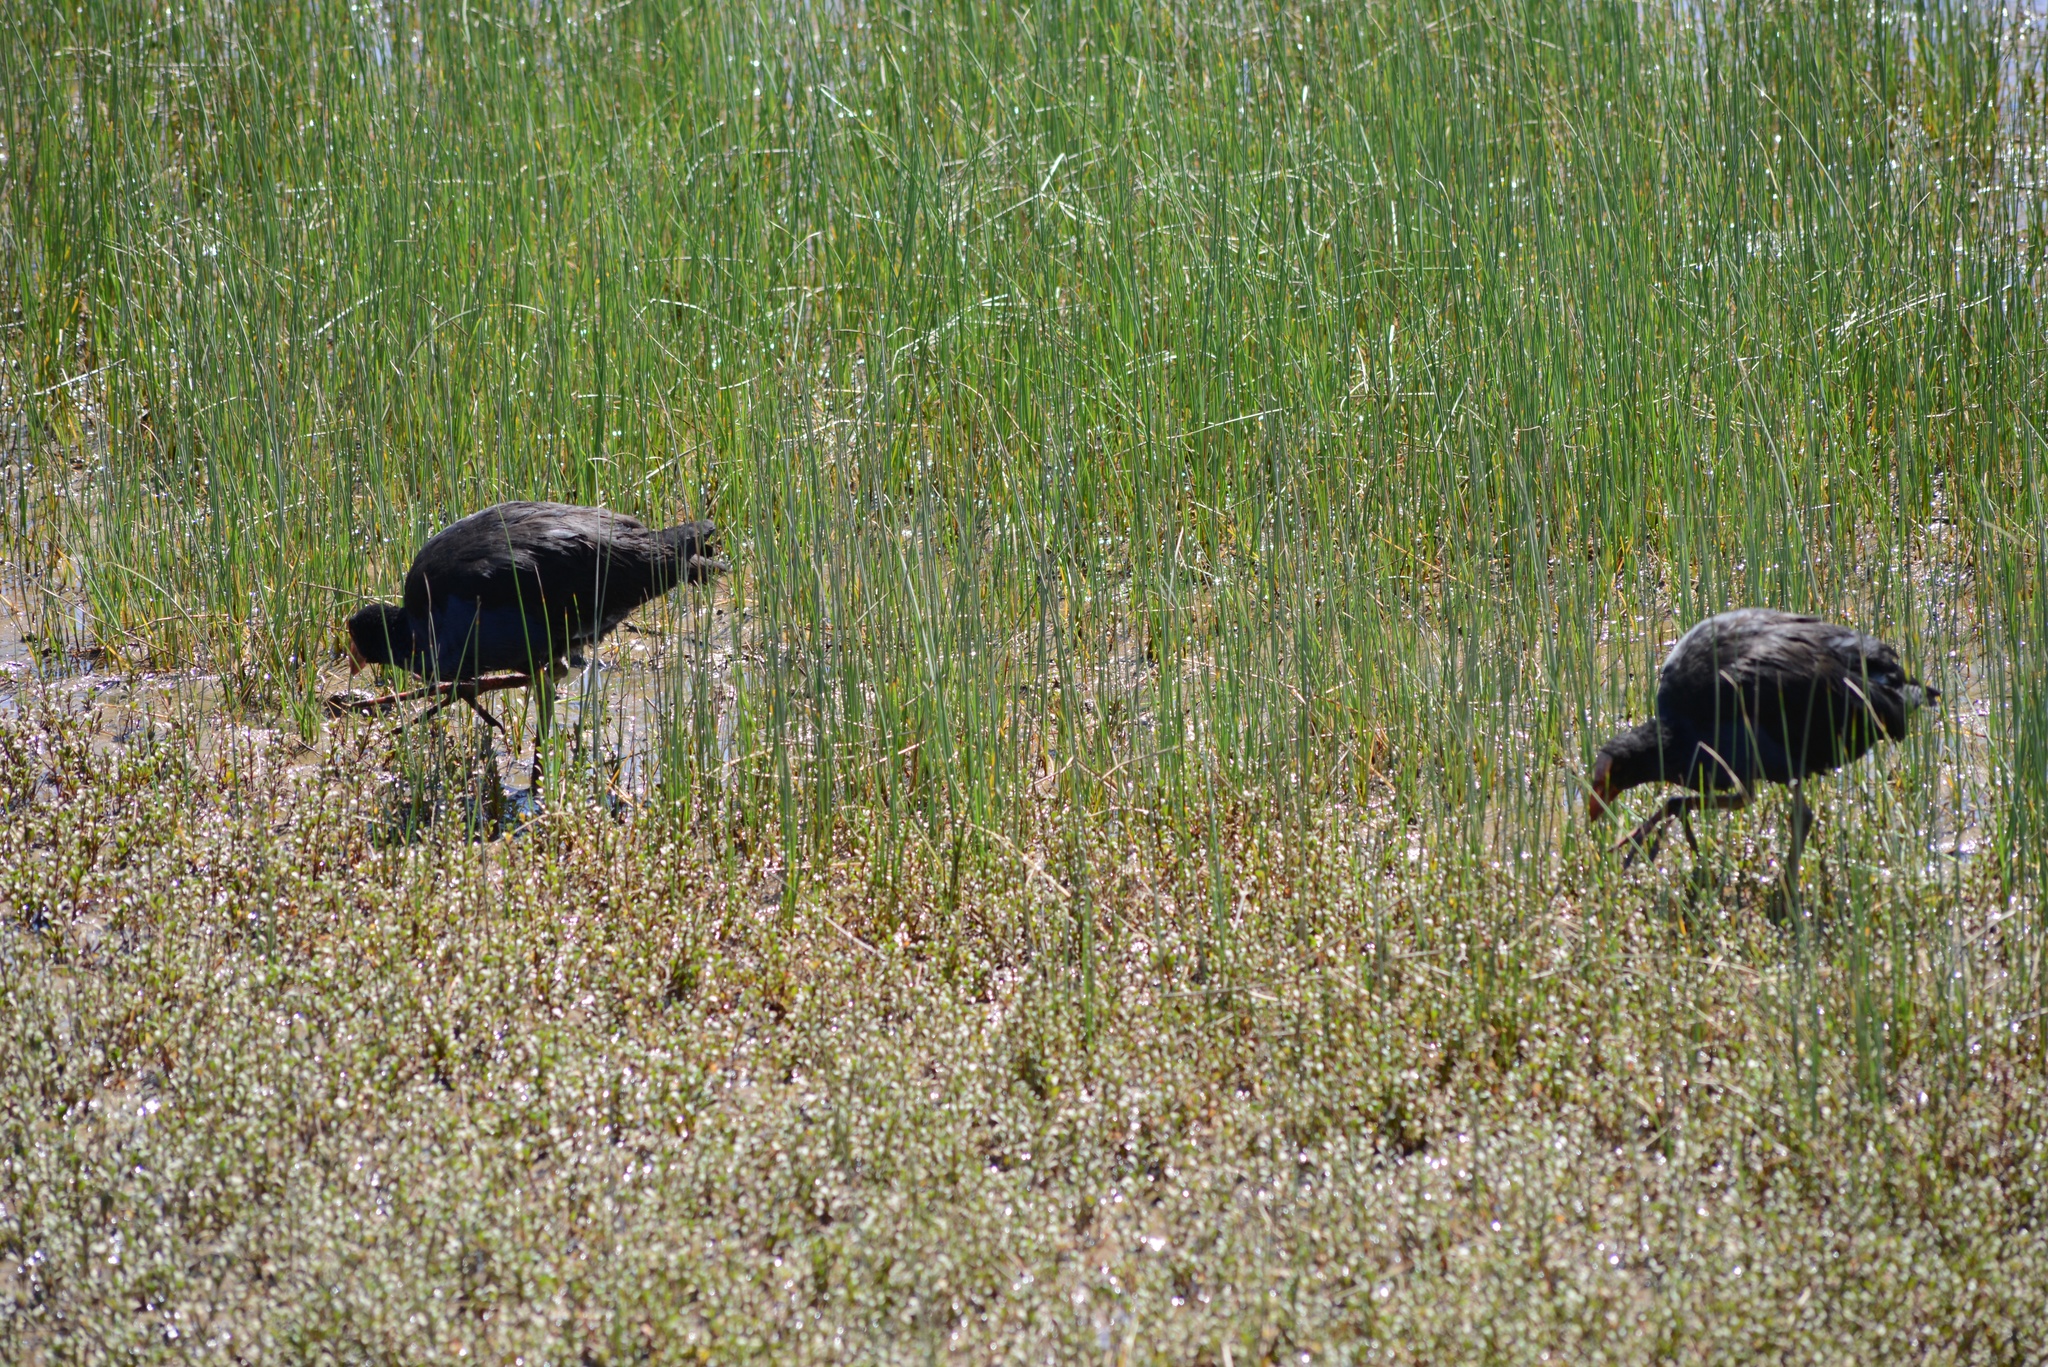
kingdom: Animalia
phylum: Chordata
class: Aves
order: Gruiformes
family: Rallidae
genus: Porphyrio
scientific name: Porphyrio melanotus
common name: Australasian swamphen
